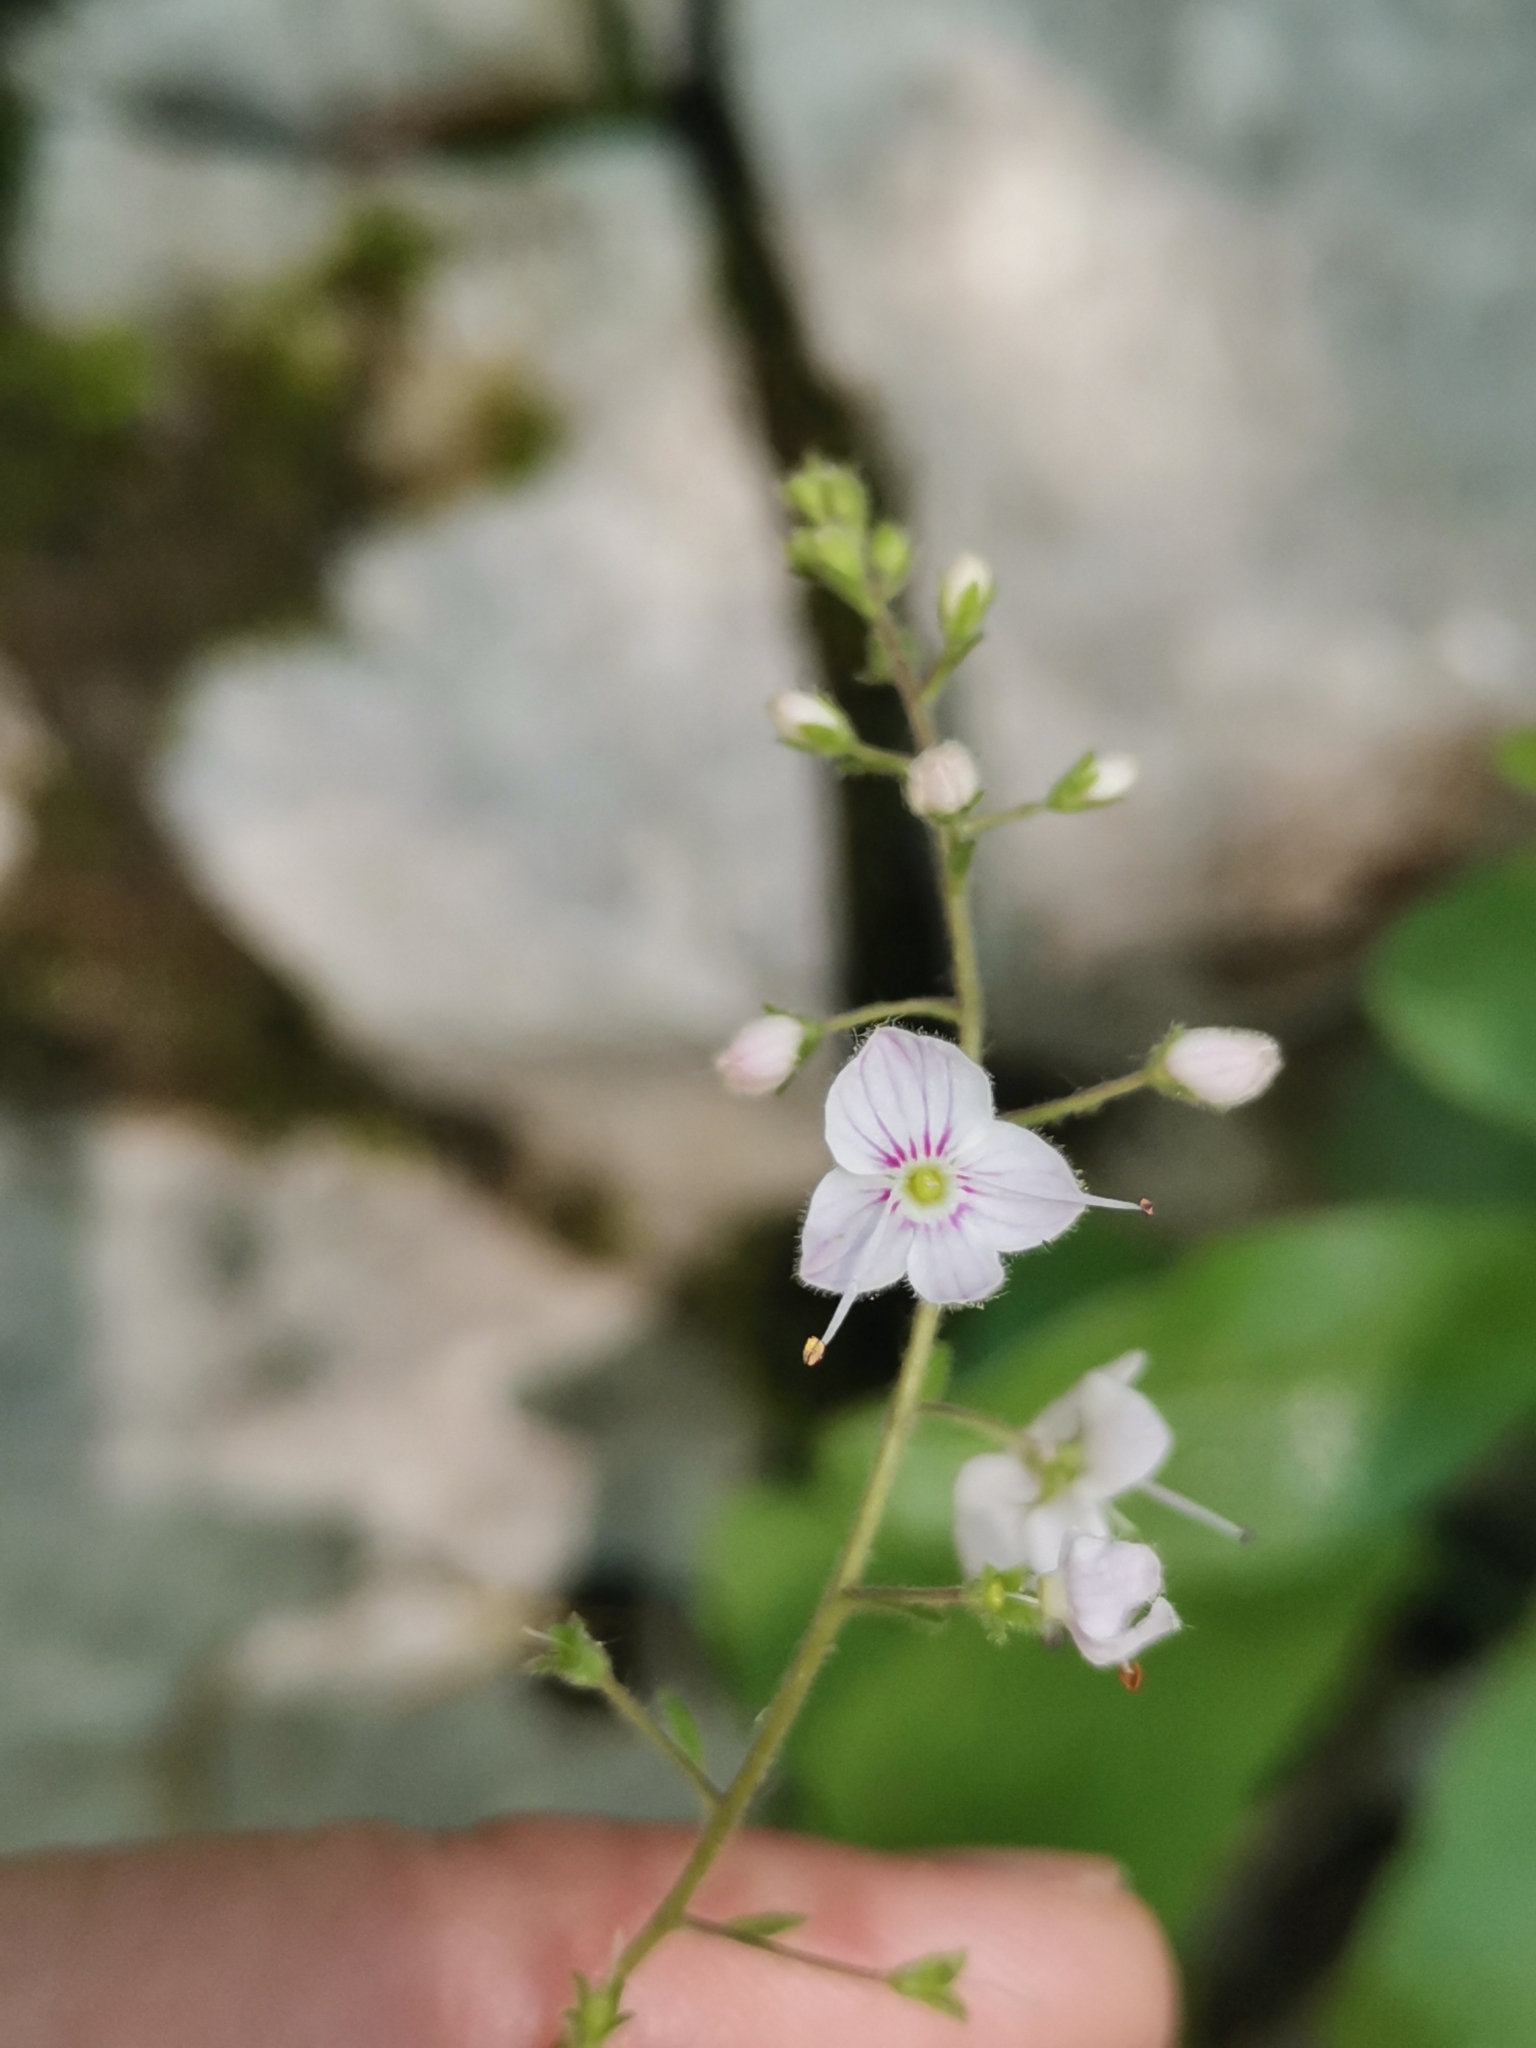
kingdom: Plantae
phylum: Tracheophyta
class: Magnoliopsida
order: Lamiales
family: Plantaginaceae
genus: Veronica
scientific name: Veronica urticifolia
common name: Nettle-leaf speedwell
